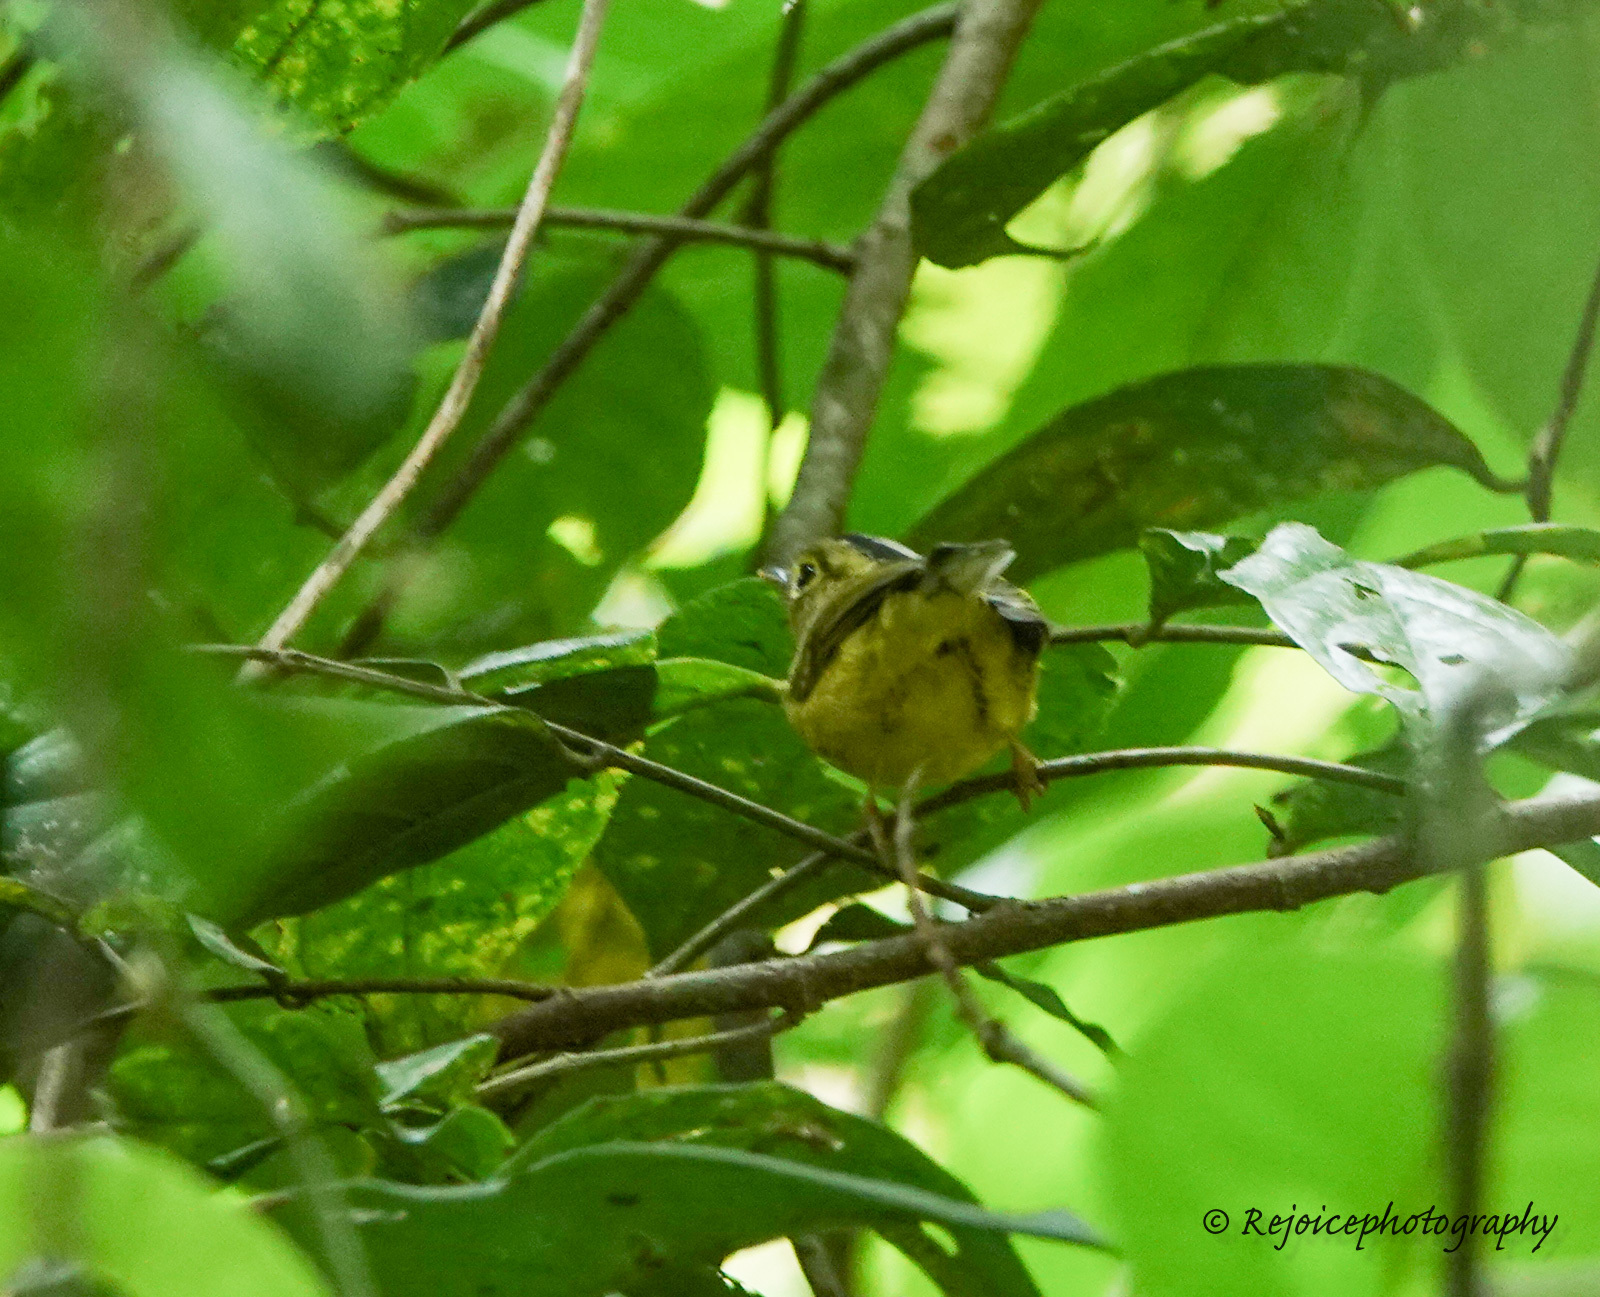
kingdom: Animalia
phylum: Chordata
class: Aves
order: Passeriformes
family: Phylloscopidae
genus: Seicercus
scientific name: Seicercus burkii
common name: Green-crowned warbler
